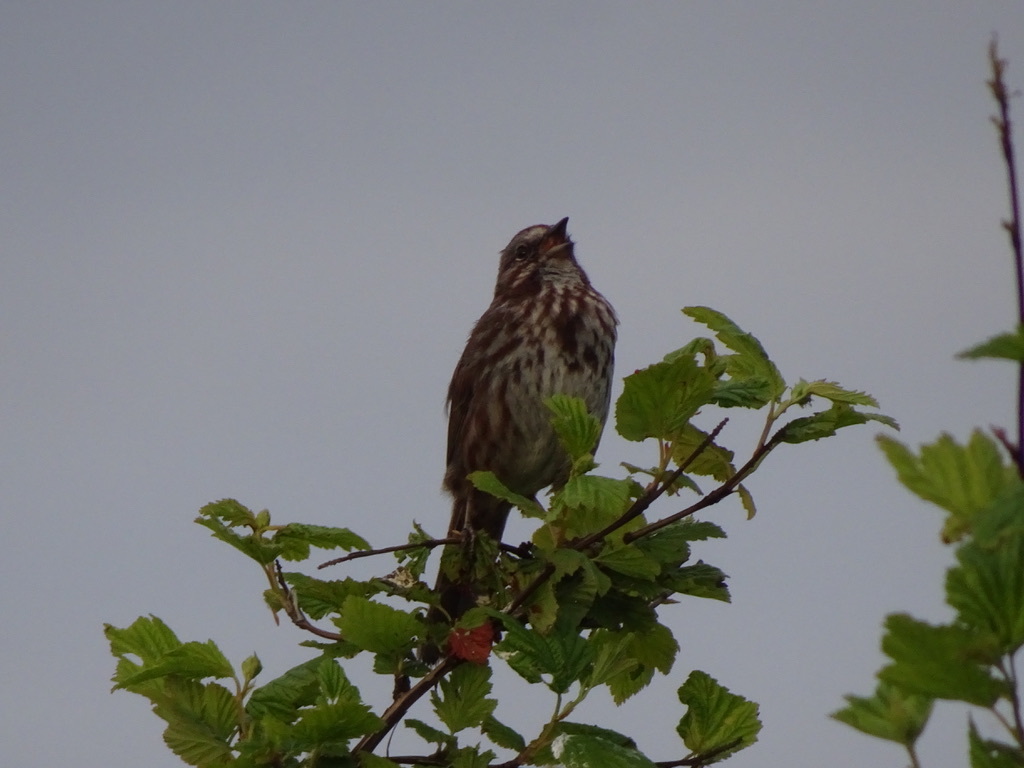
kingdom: Animalia
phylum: Chordata
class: Aves
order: Passeriformes
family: Passerellidae
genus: Melospiza
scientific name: Melospiza melodia
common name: Song sparrow
